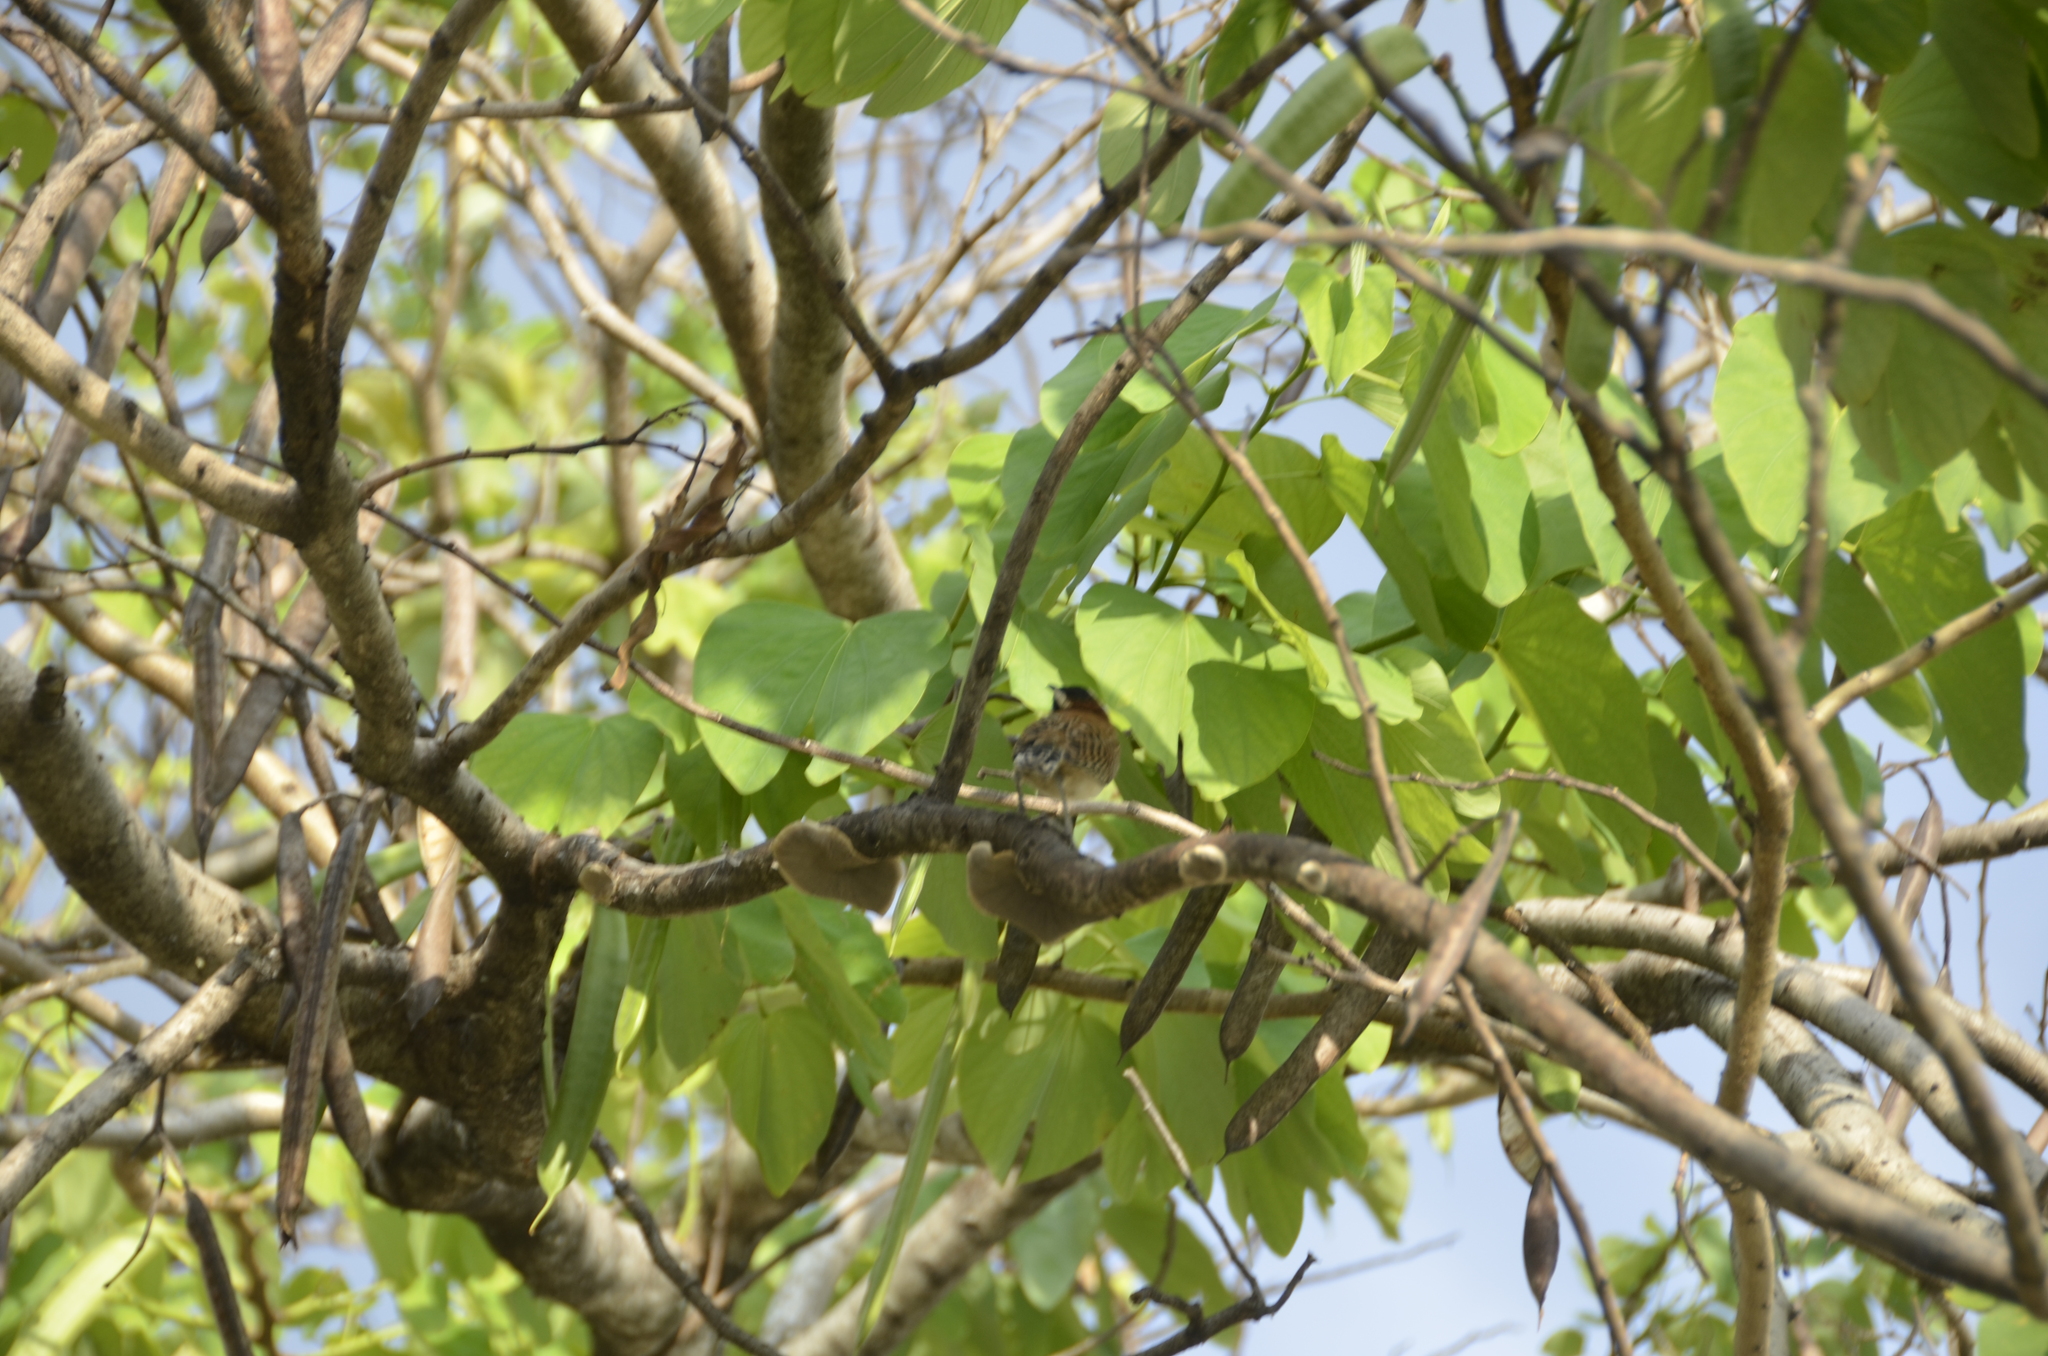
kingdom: Animalia
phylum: Chordata
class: Aves
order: Passeriformes
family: Troglodytidae
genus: Campylorhynchus
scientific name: Campylorhynchus rufinucha
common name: Rufous-naped wren
